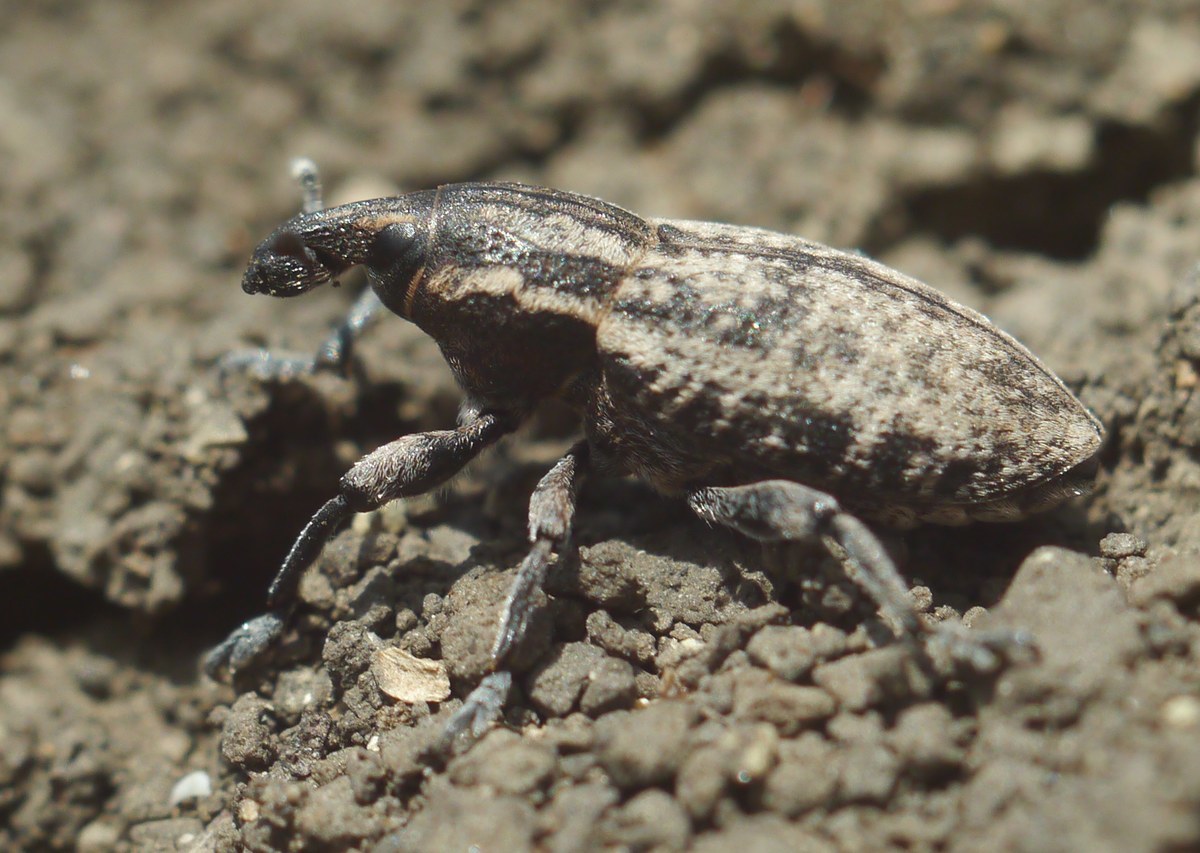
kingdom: Animalia
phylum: Arthropoda
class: Insecta
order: Coleoptera
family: Curculionidae
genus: Pseudocleonus
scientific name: Pseudocleonus cinereus
